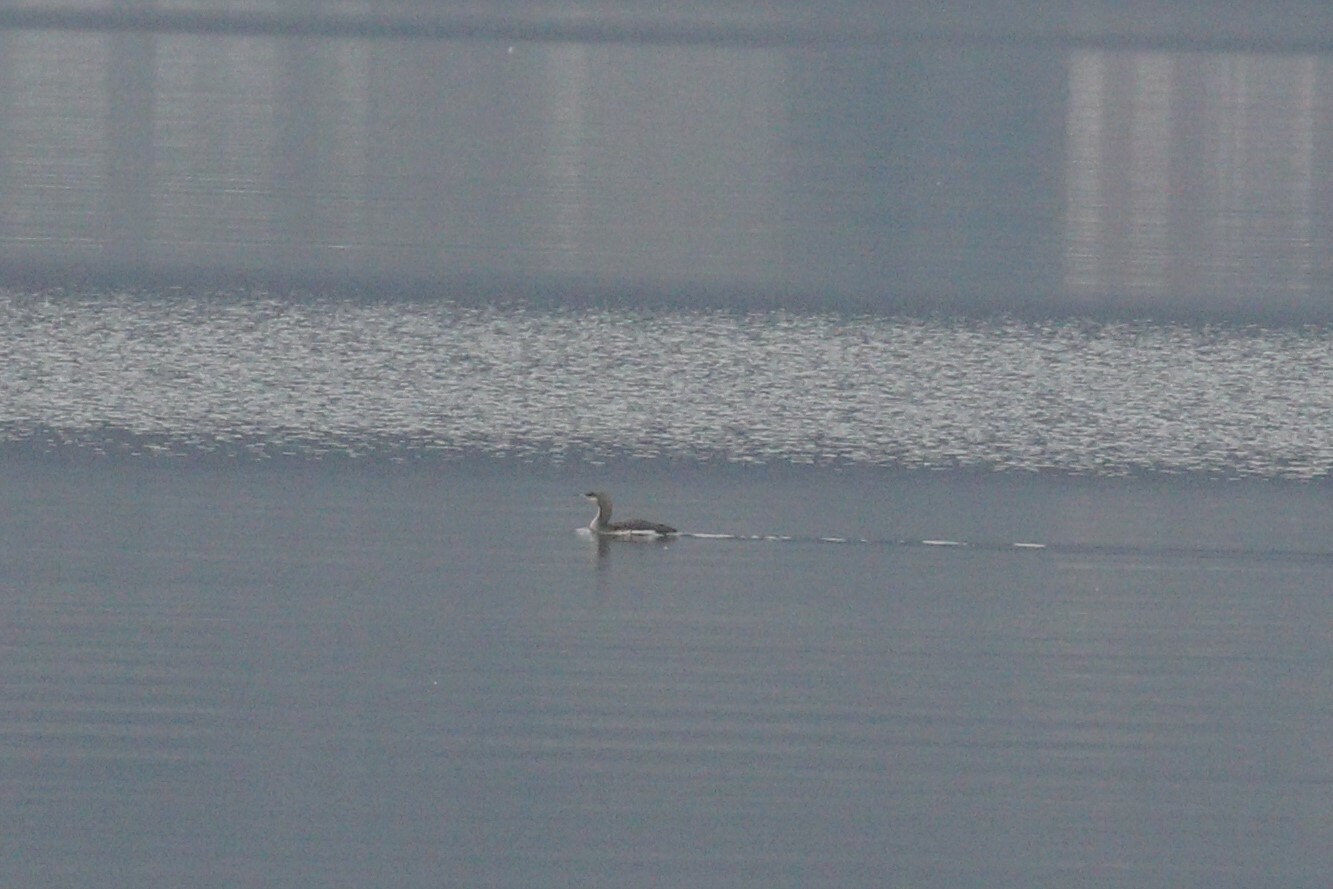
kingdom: Animalia
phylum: Chordata
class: Aves
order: Gaviiformes
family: Gaviidae
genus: Gavia
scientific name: Gavia arctica
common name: Black-throated loon
